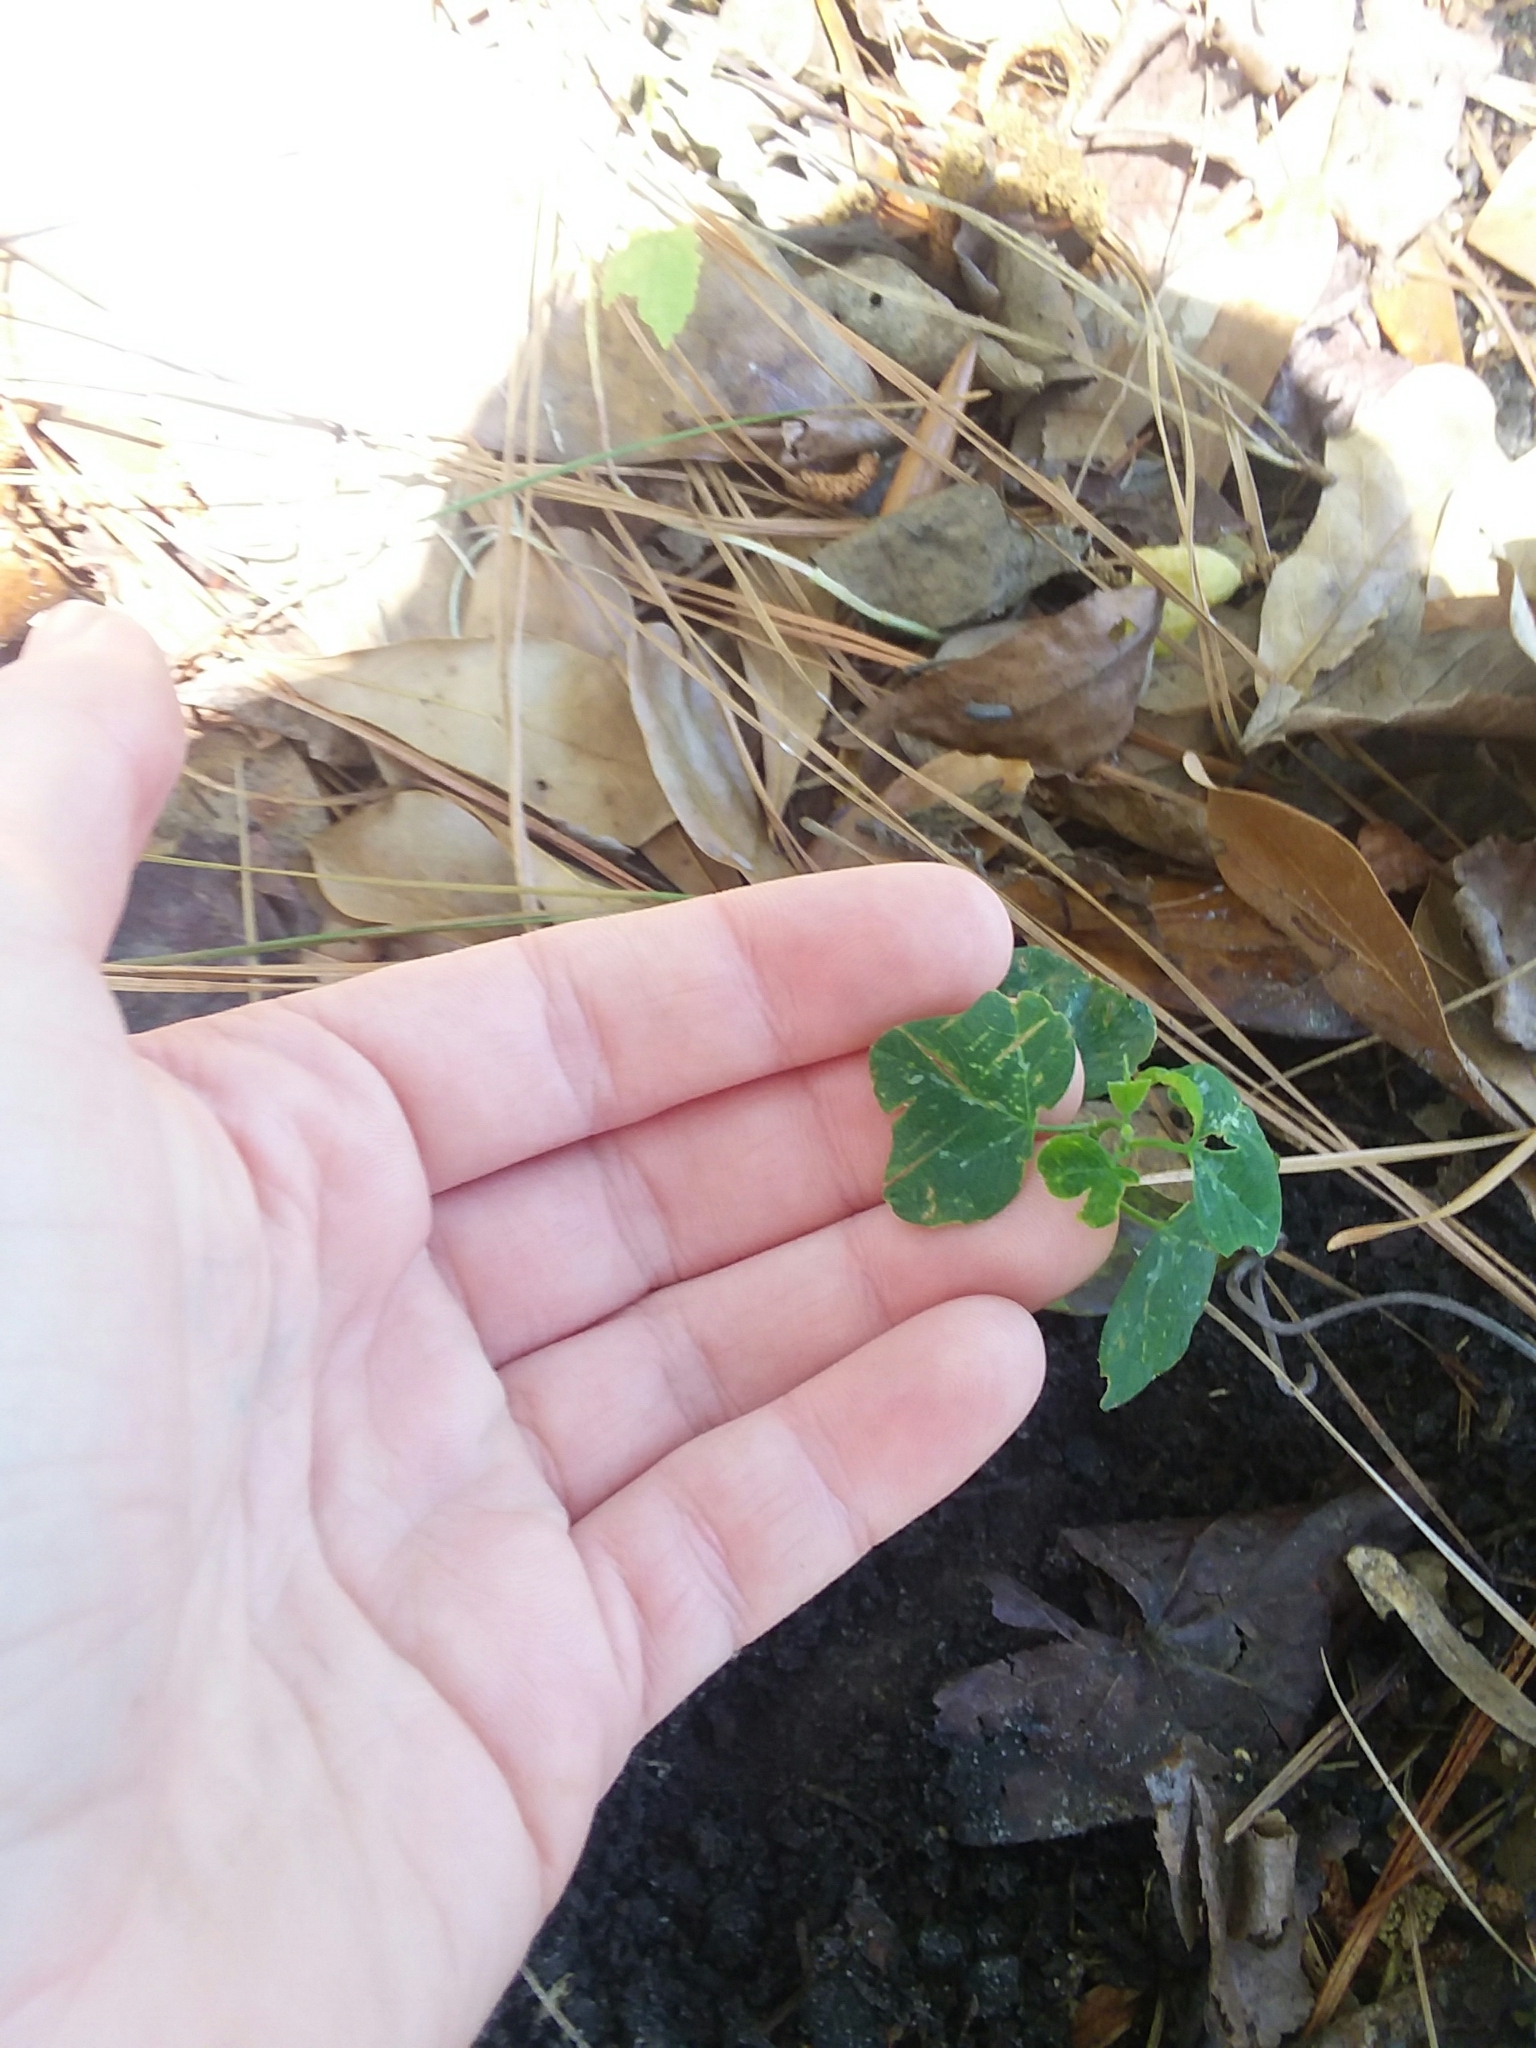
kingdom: Plantae
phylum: Tracheophyta
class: Magnoliopsida
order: Malpighiales
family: Passifloraceae
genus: Passiflora
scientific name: Passiflora lutea
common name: Yellow passionflower
